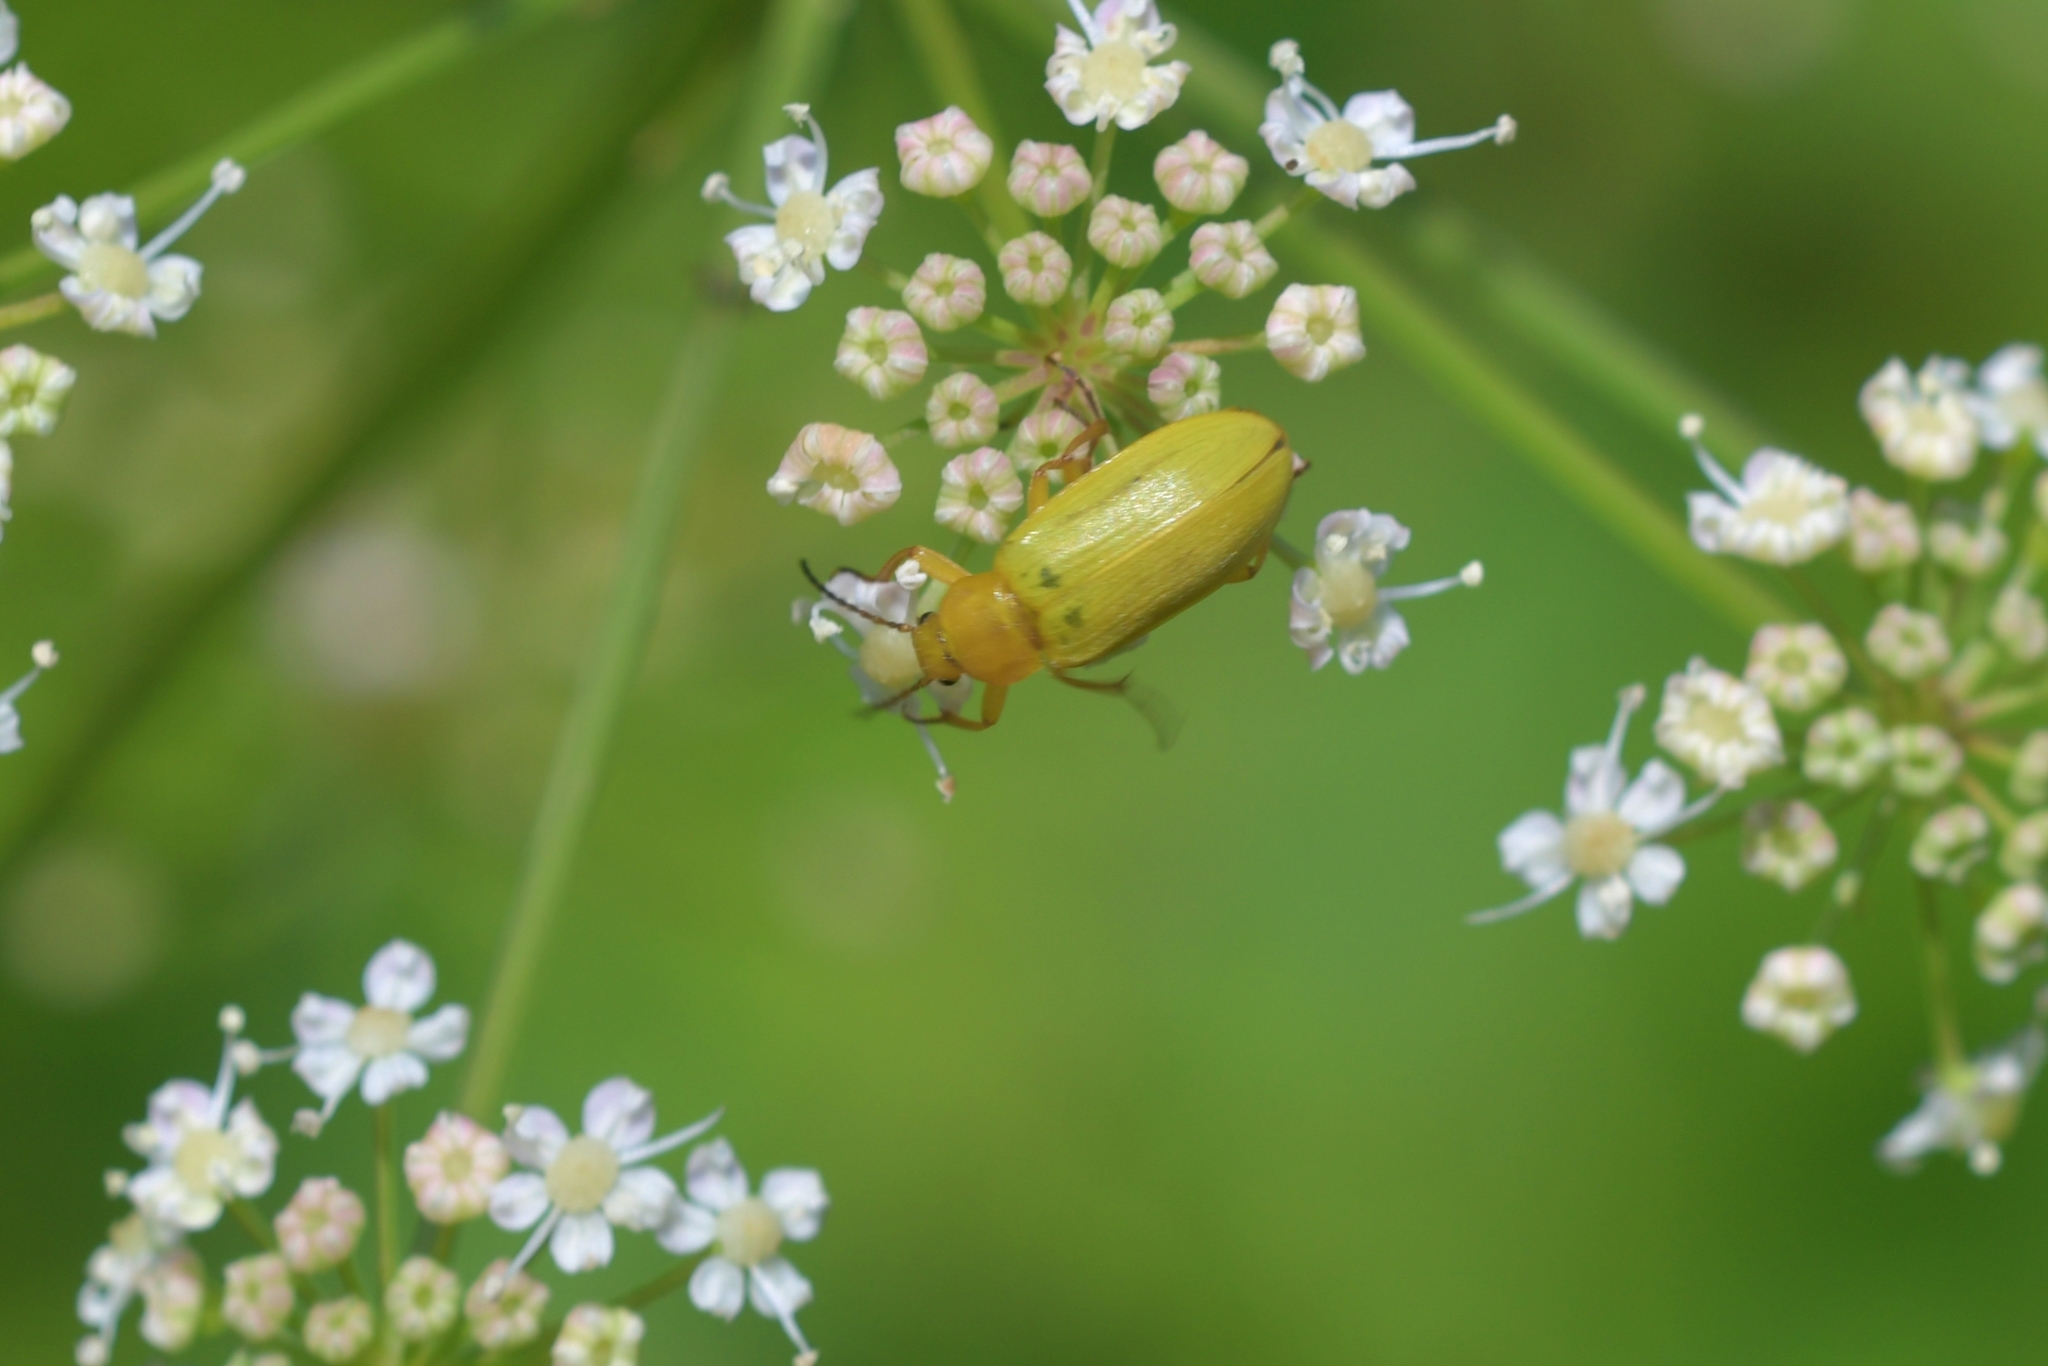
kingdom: Animalia
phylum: Arthropoda
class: Insecta
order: Coleoptera
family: Tenebrionidae
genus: Cteniopus
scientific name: Cteniopus sulphureus
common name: Sulphur beetle
